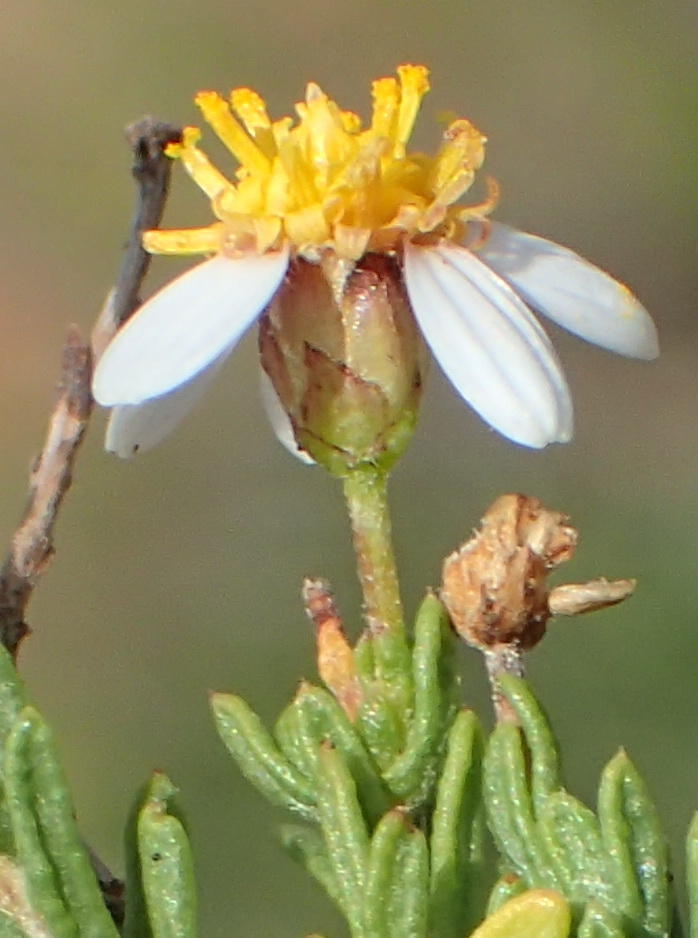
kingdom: Plantae
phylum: Tracheophyta
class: Magnoliopsida
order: Asterales
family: Asteraceae
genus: Phymaspermum
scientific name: Phymaspermum aciculare
